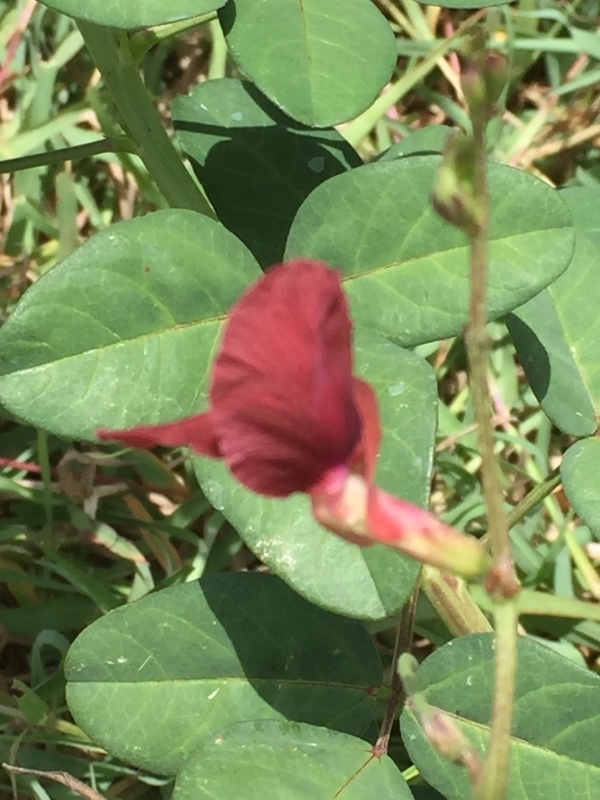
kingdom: Plantae
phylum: Tracheophyta
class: Magnoliopsida
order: Fabales
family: Fabaceae
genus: Macroptilium
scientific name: Macroptilium lathyroides
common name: Wild bushbean
